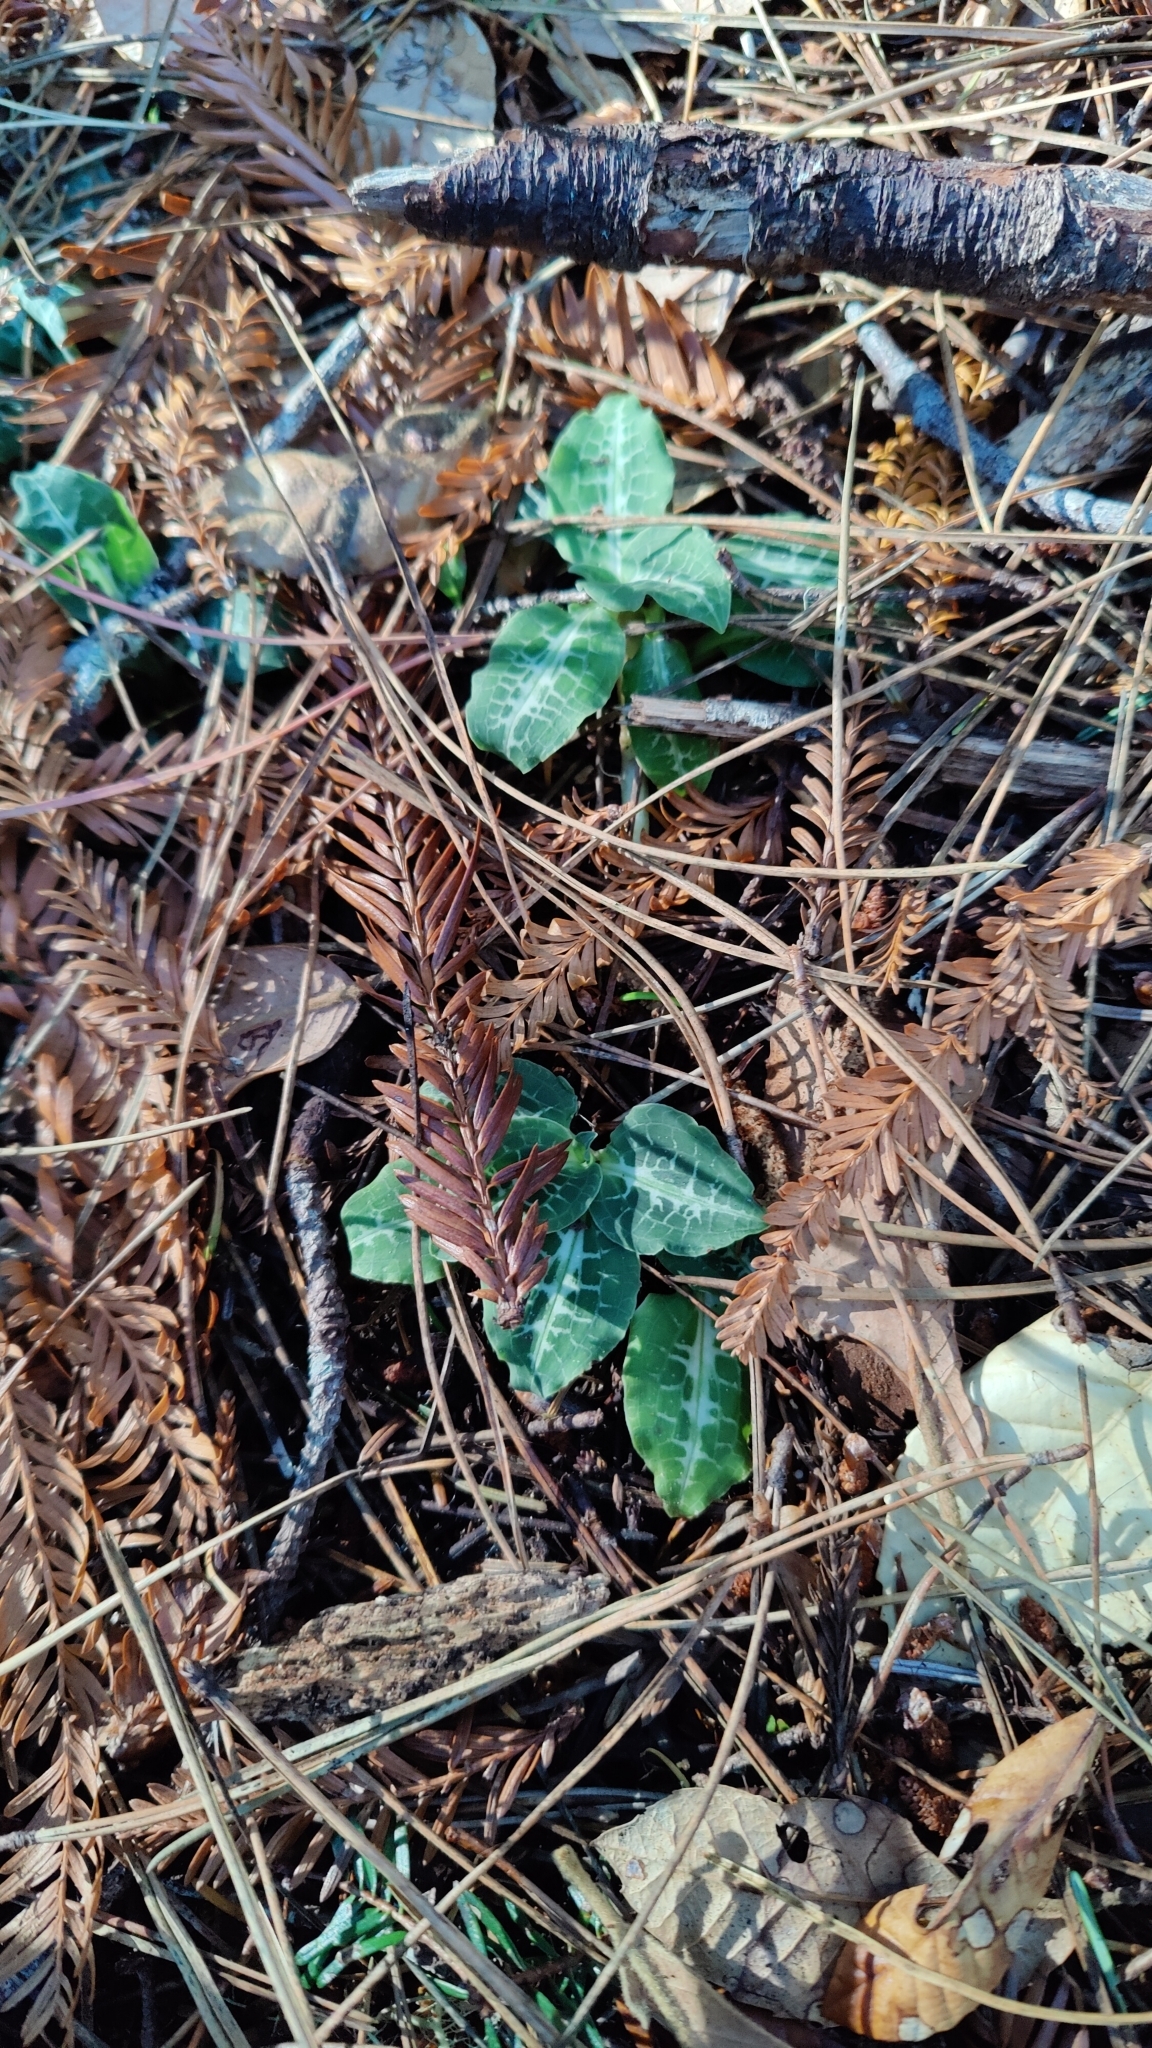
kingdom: Plantae
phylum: Tracheophyta
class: Liliopsida
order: Asparagales
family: Orchidaceae
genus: Goodyera
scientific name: Goodyera oblongifolia
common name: Giant rattlesnake-plantain
